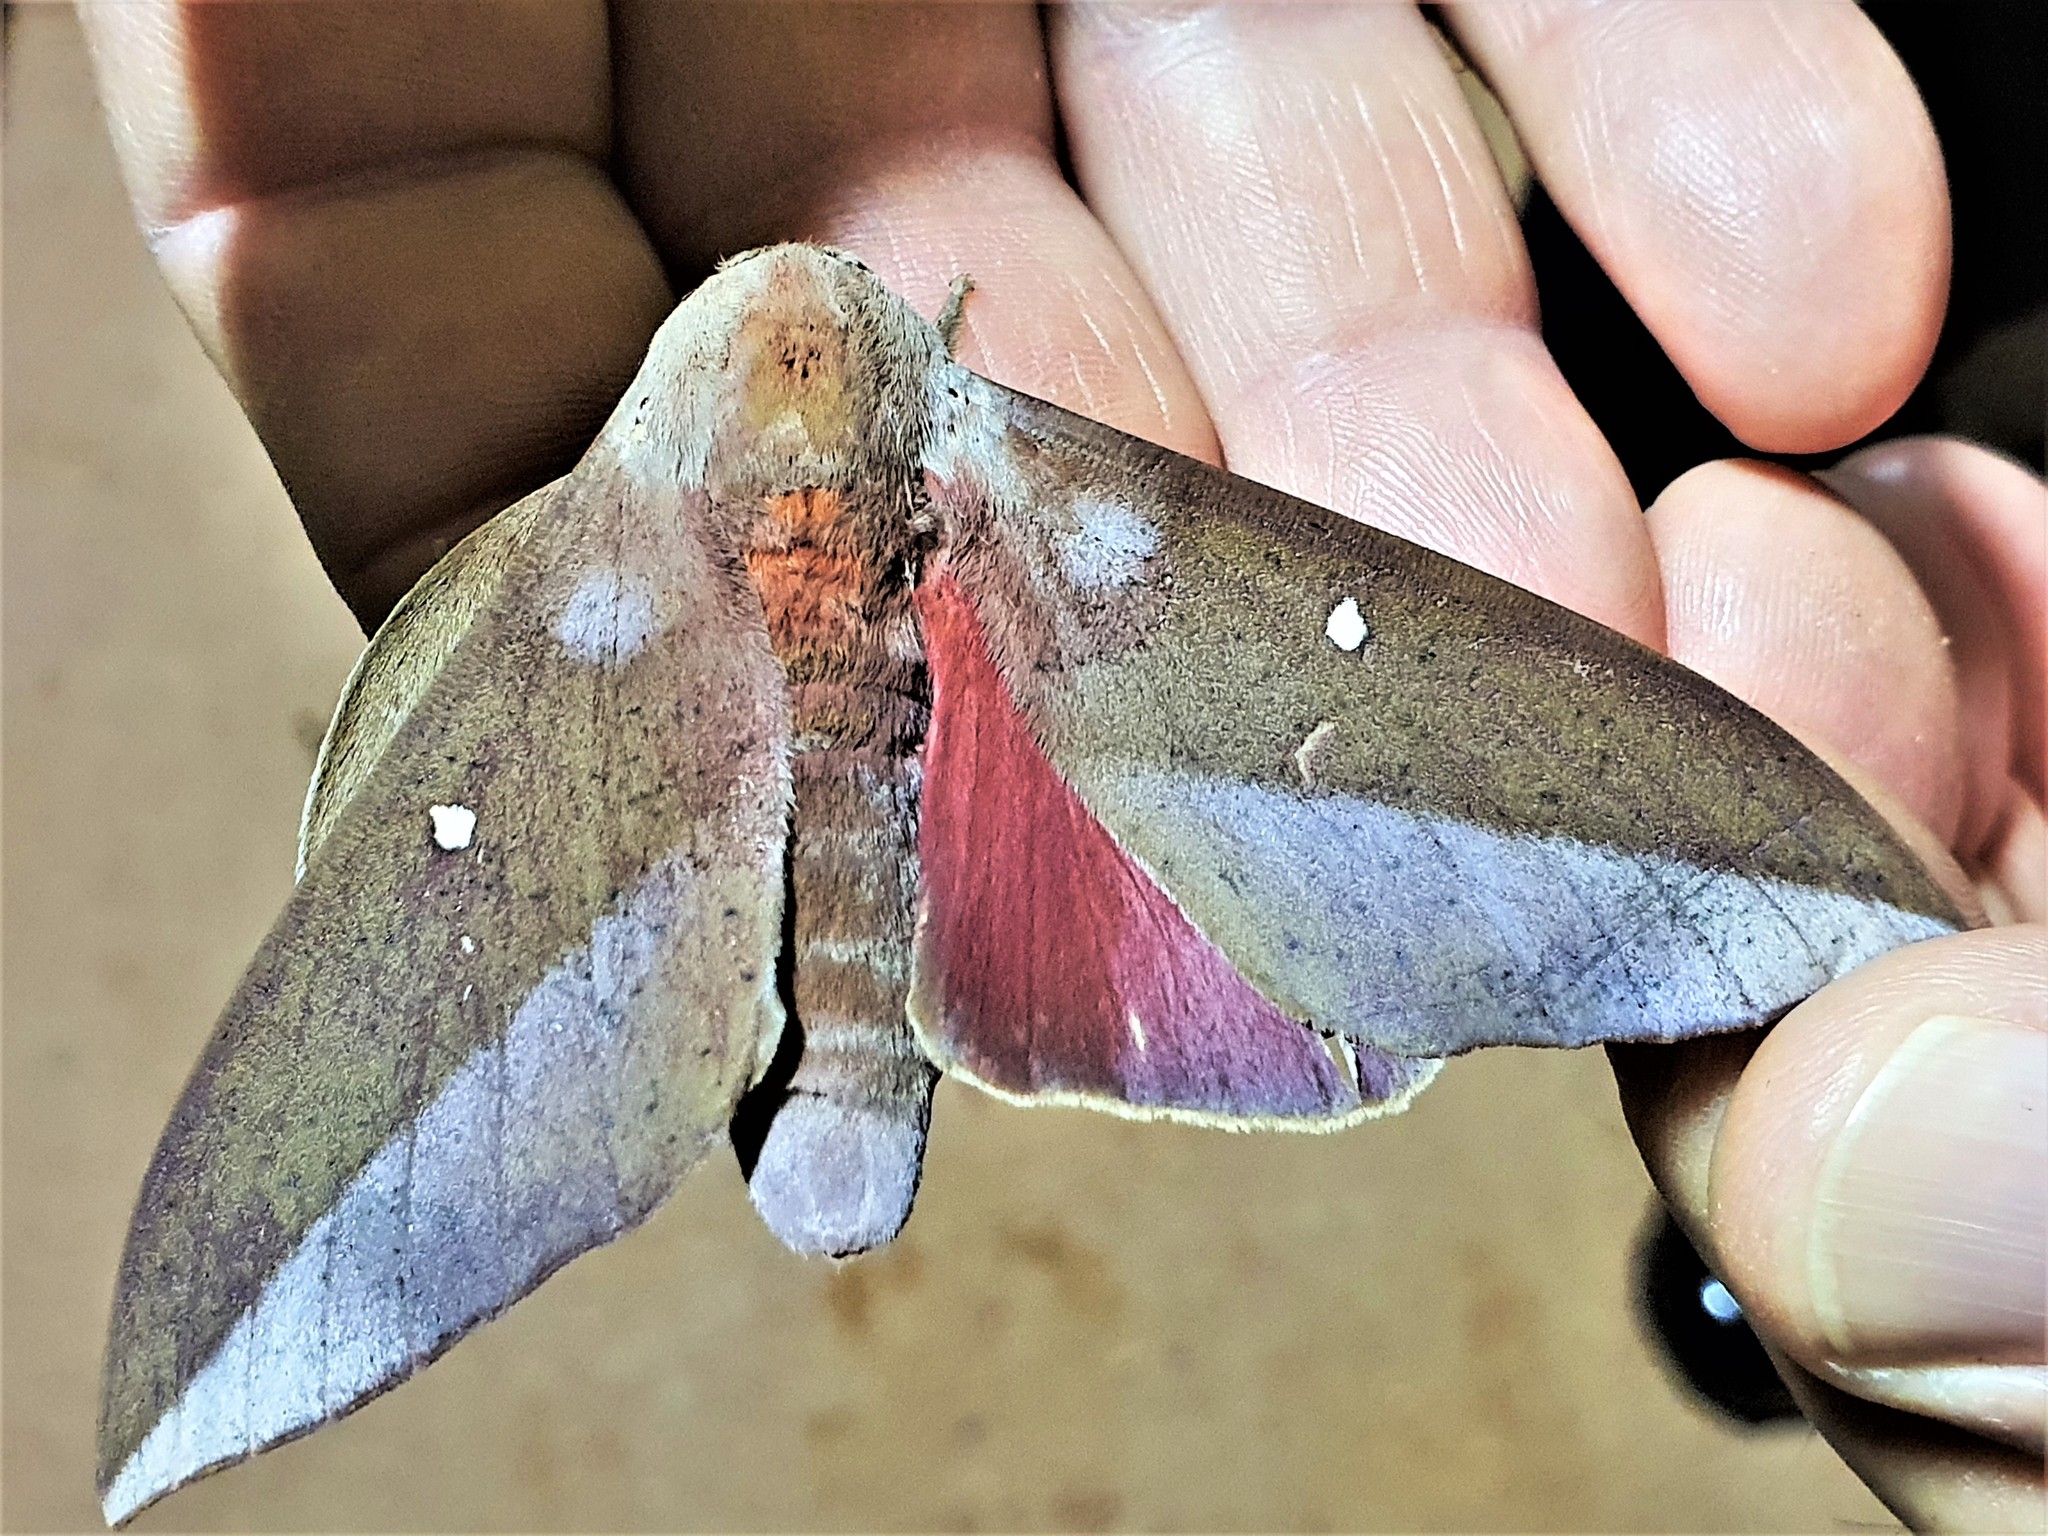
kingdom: Animalia
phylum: Arthropoda
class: Insecta
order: Lepidoptera
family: Saturniidae
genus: Othorene
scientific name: Othorene hodeva
